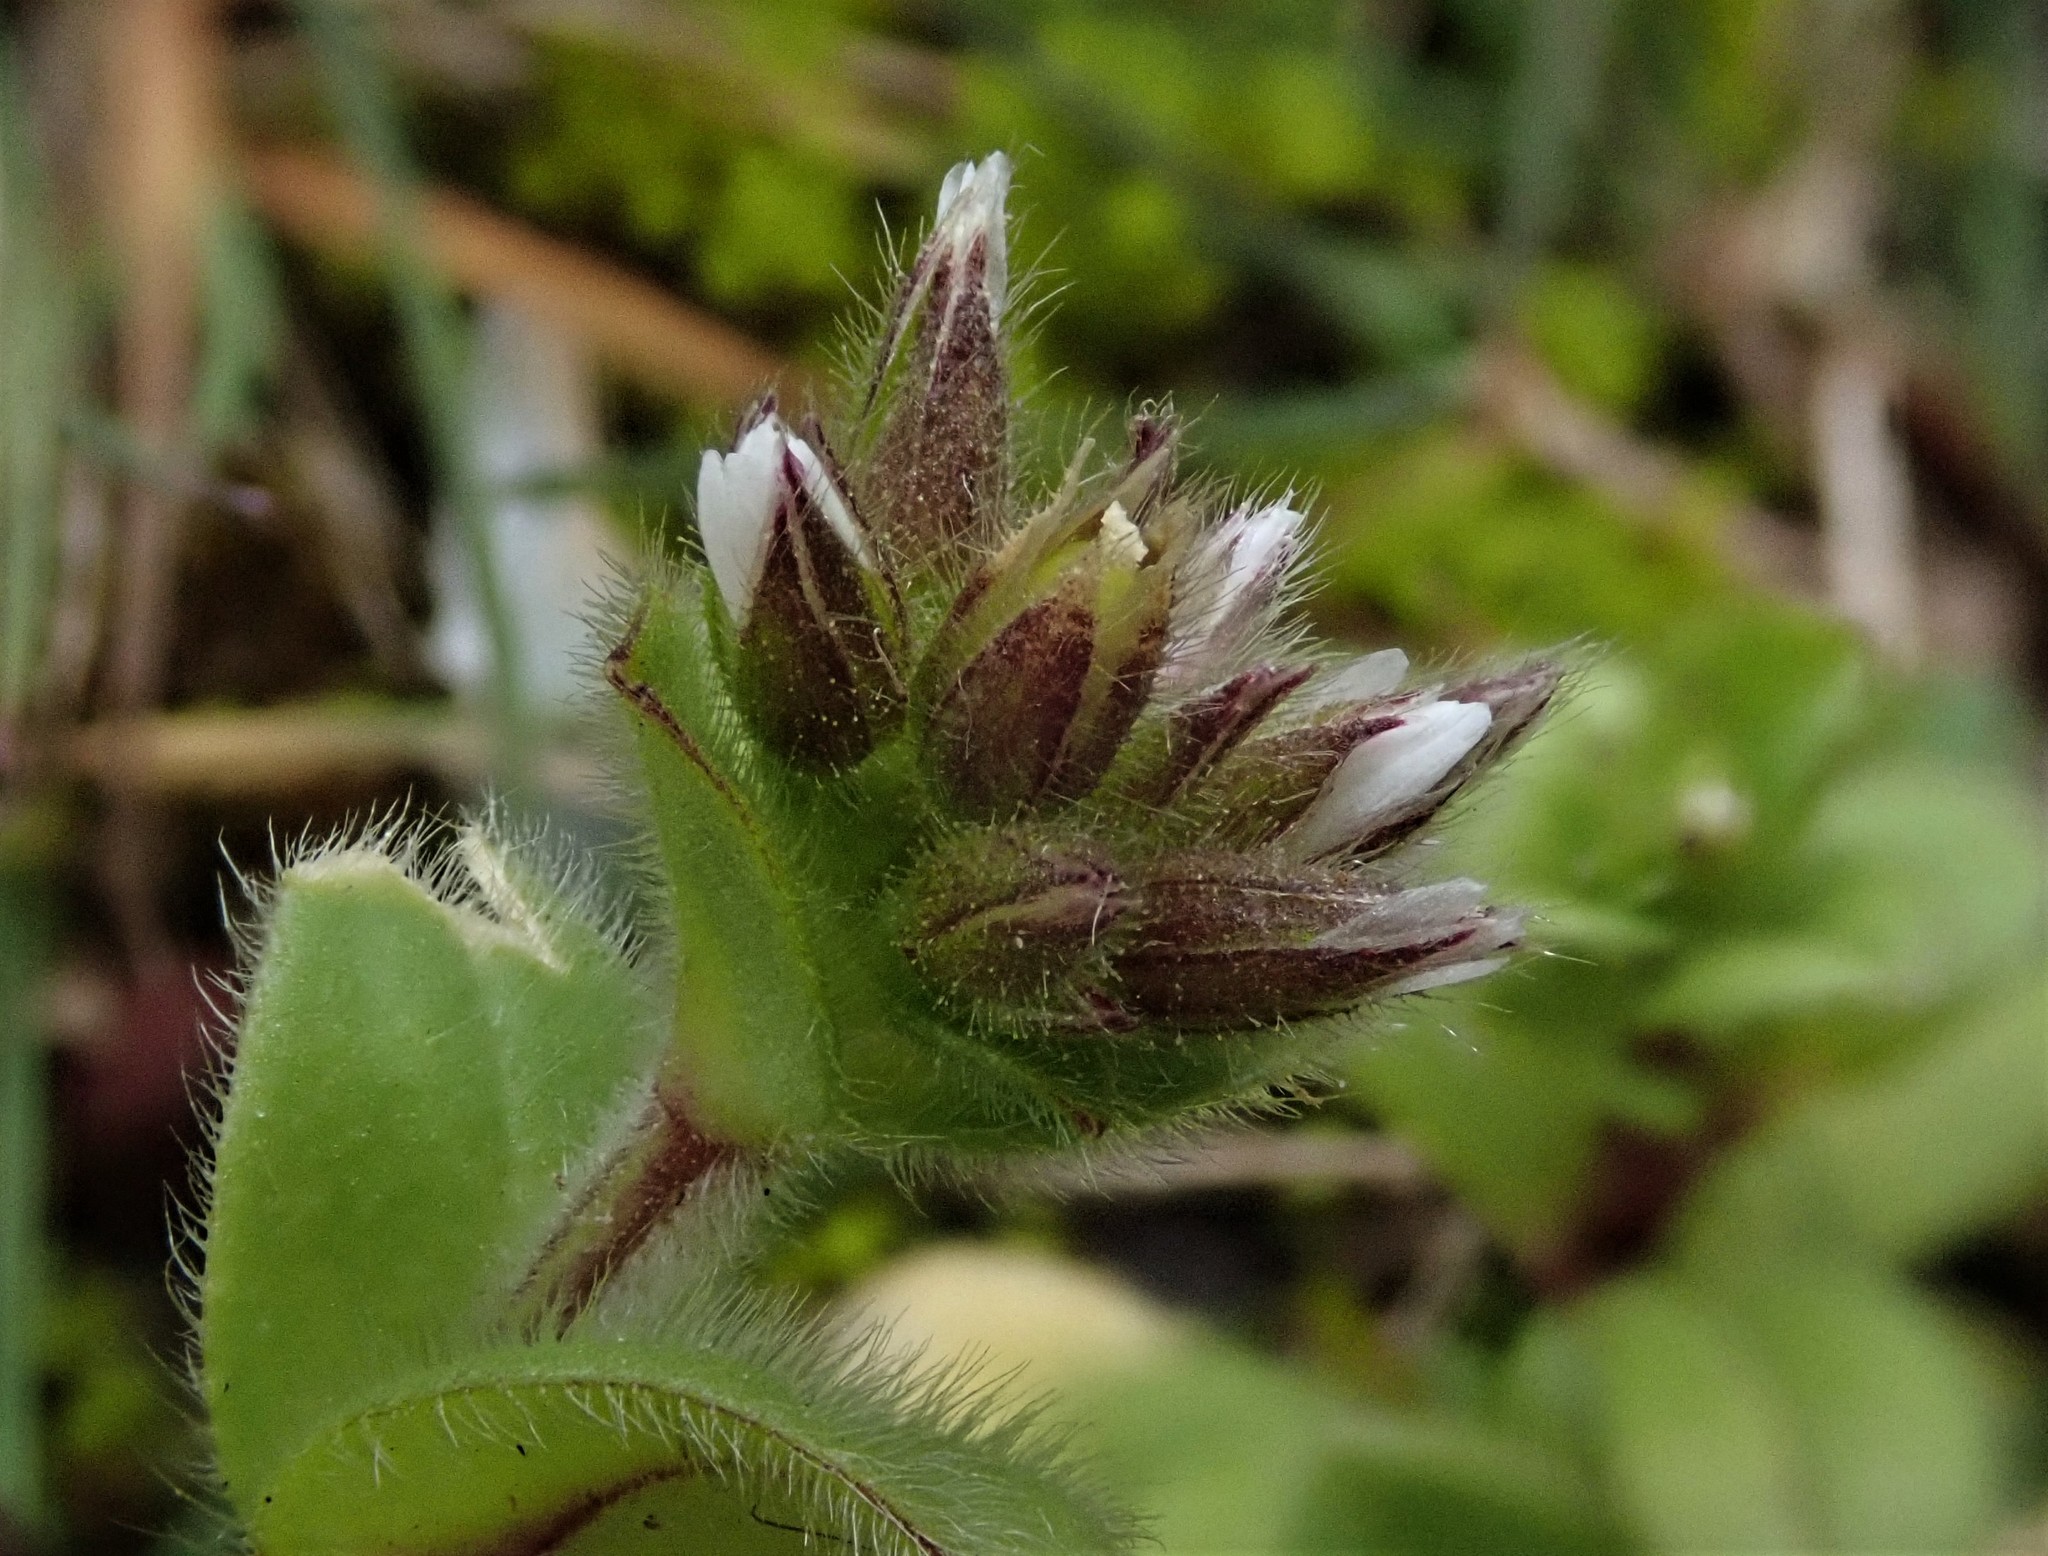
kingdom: Plantae
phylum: Tracheophyta
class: Magnoliopsida
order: Caryophyllales
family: Caryophyllaceae
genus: Cerastium
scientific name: Cerastium glomeratum
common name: Sticky chickweed
